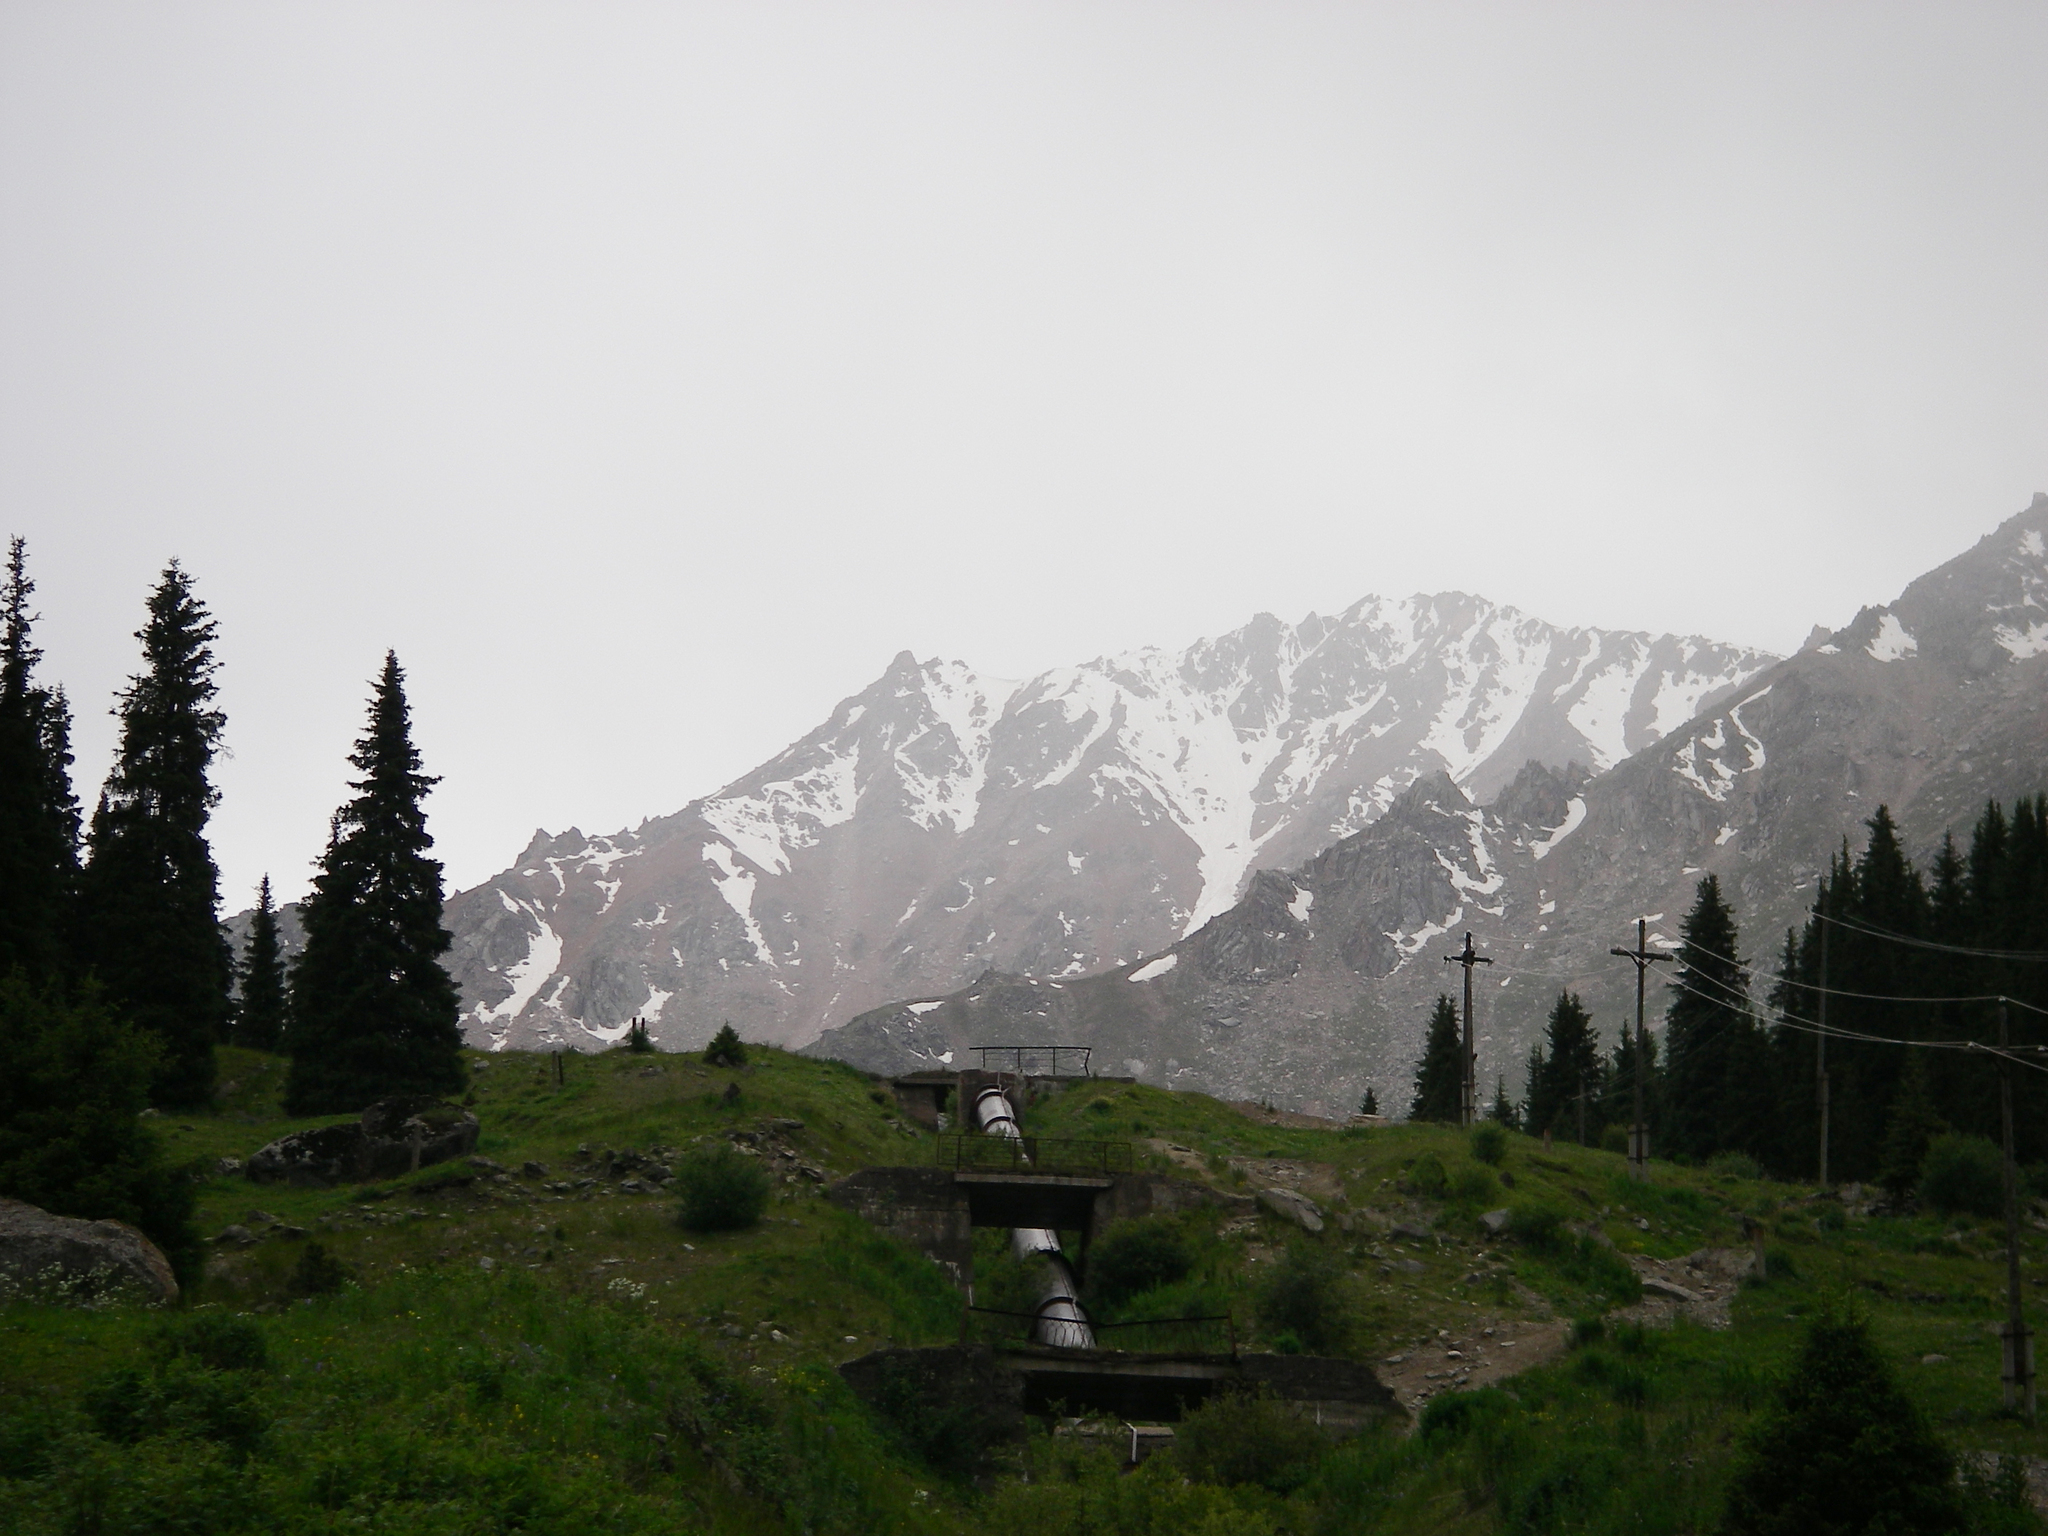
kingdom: Plantae
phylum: Tracheophyta
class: Pinopsida
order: Pinales
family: Pinaceae
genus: Picea
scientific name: Picea schrenkiana
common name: Asian spruce
